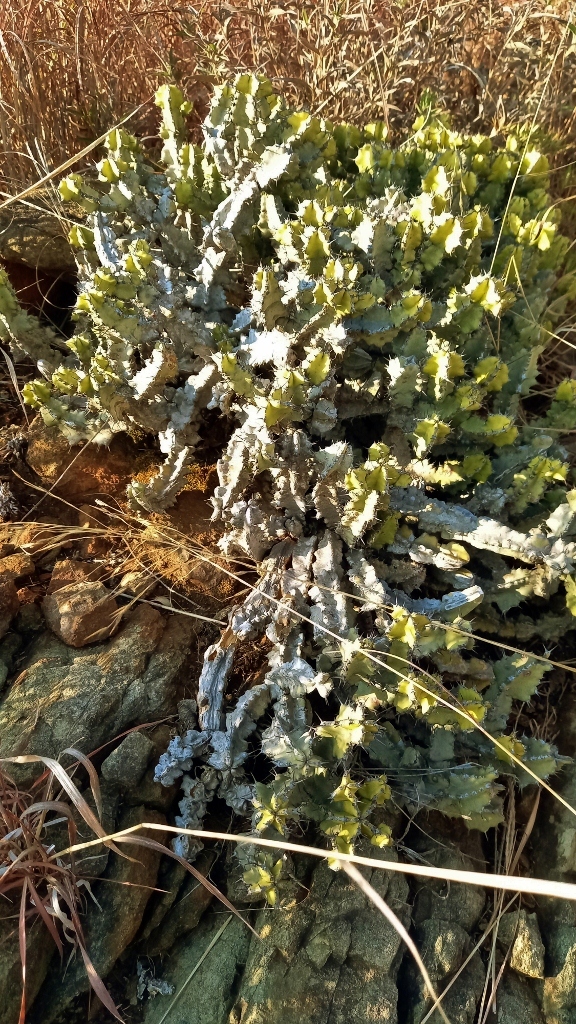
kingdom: Plantae
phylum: Tracheophyta
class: Magnoliopsida
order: Malpighiales
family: Euphorbiaceae
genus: Euphorbia
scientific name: Euphorbia memoralis
